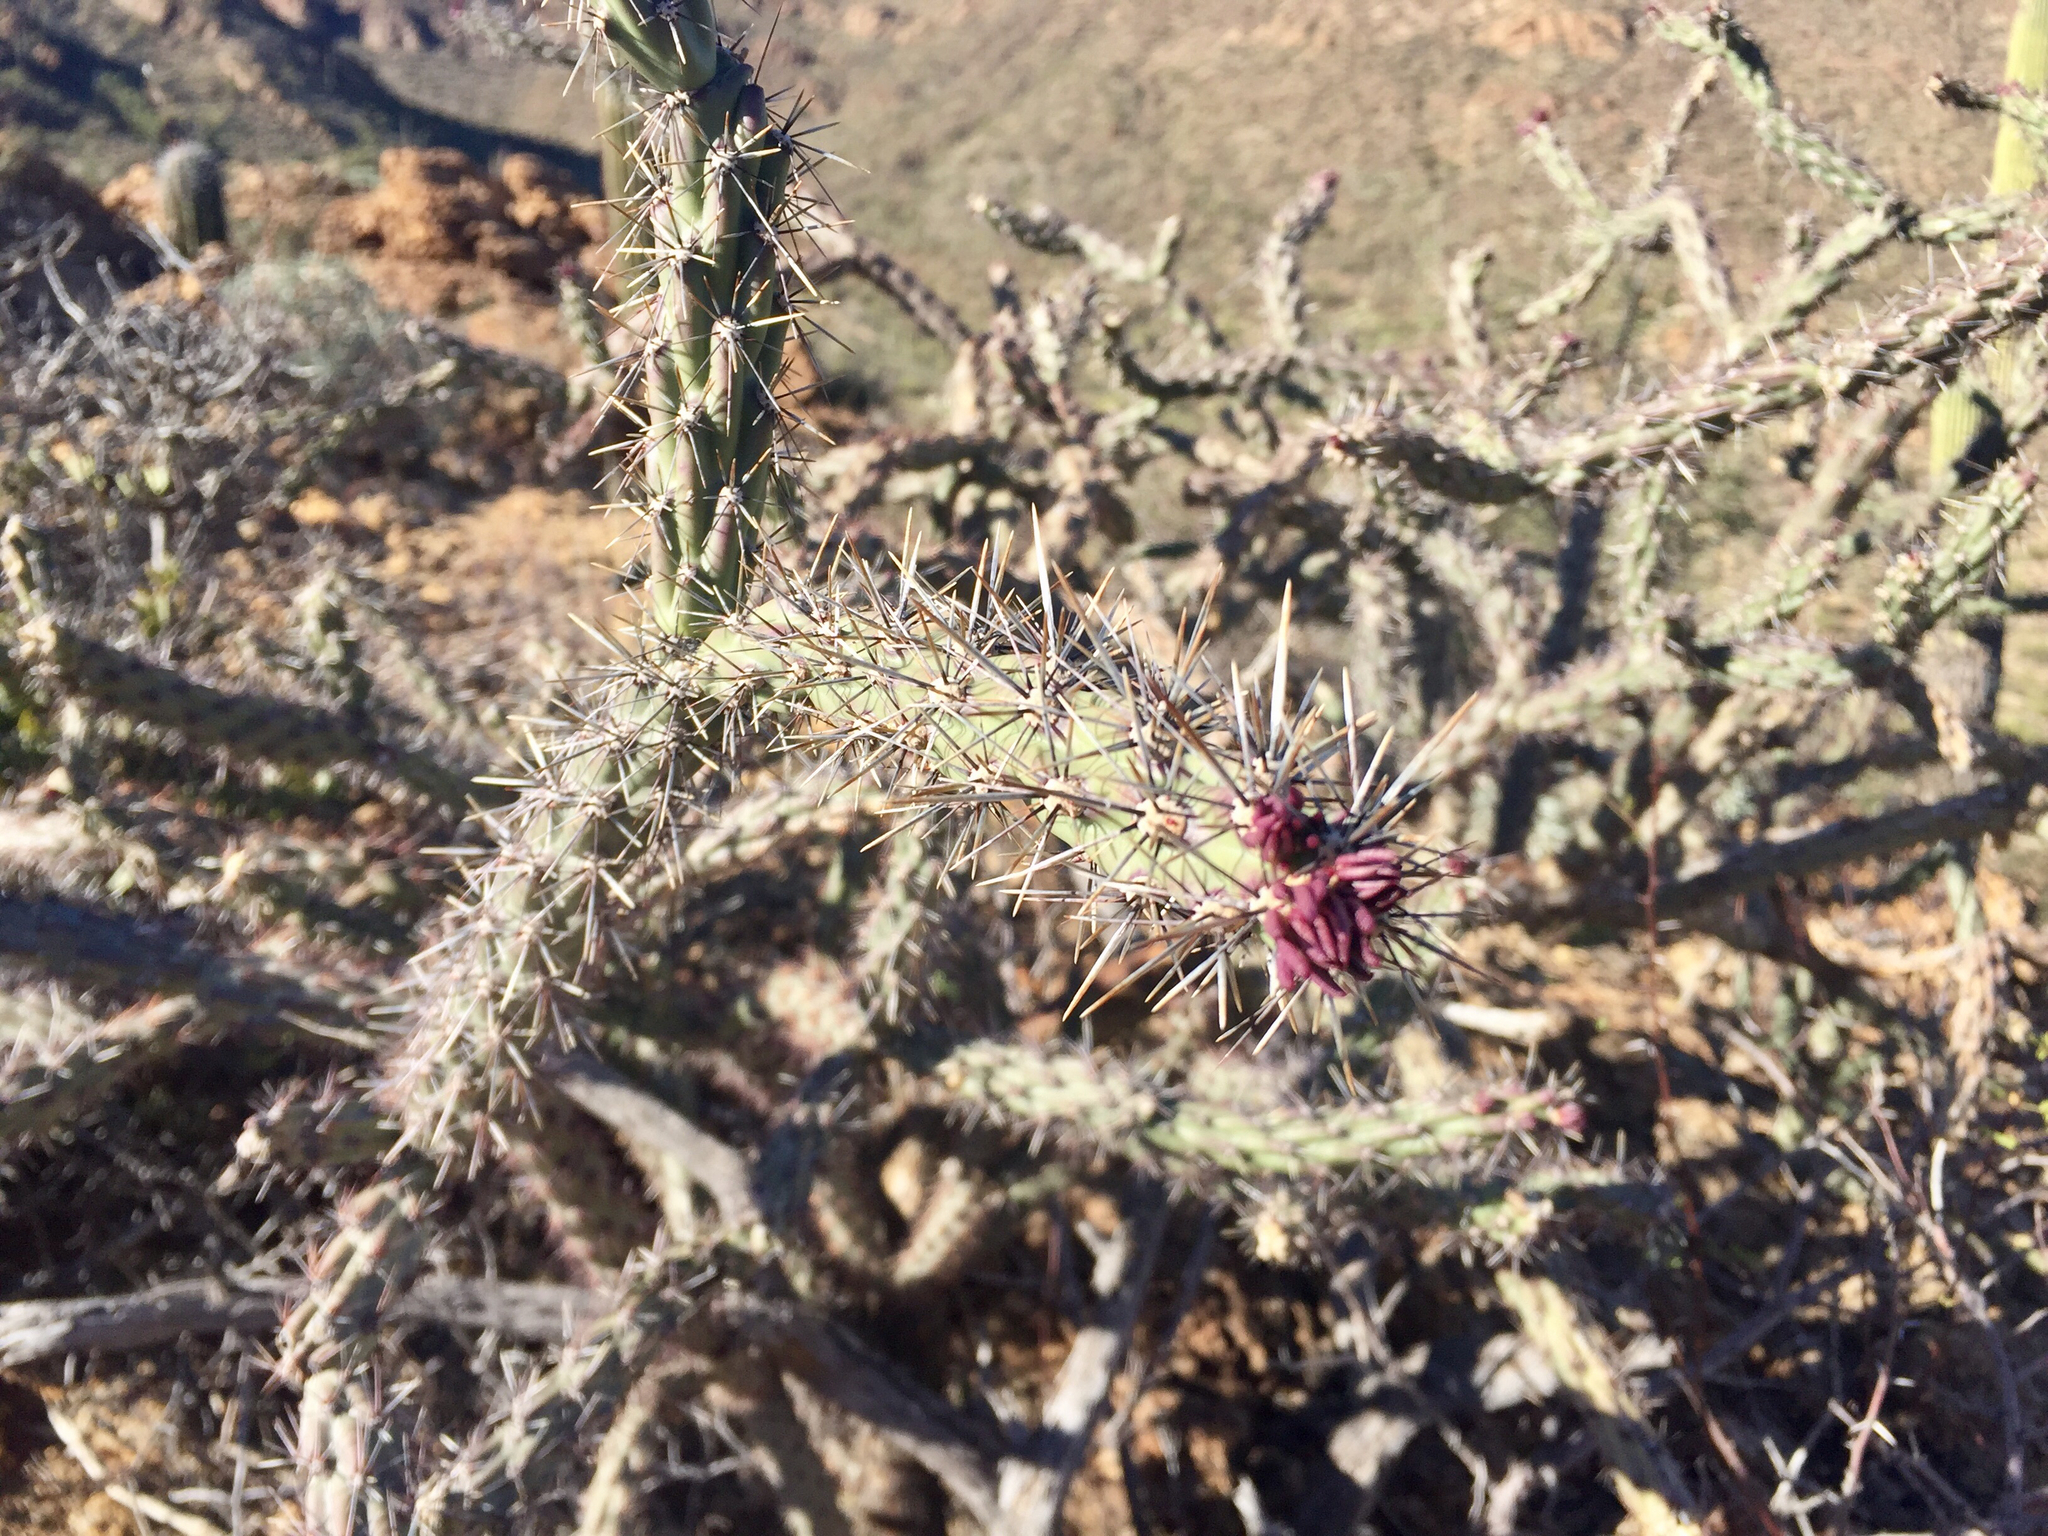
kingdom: Plantae
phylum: Tracheophyta
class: Magnoliopsida
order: Caryophyllales
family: Cactaceae
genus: Cylindropuntia
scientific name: Cylindropuntia acanthocarpa
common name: Buckhorn cholla
